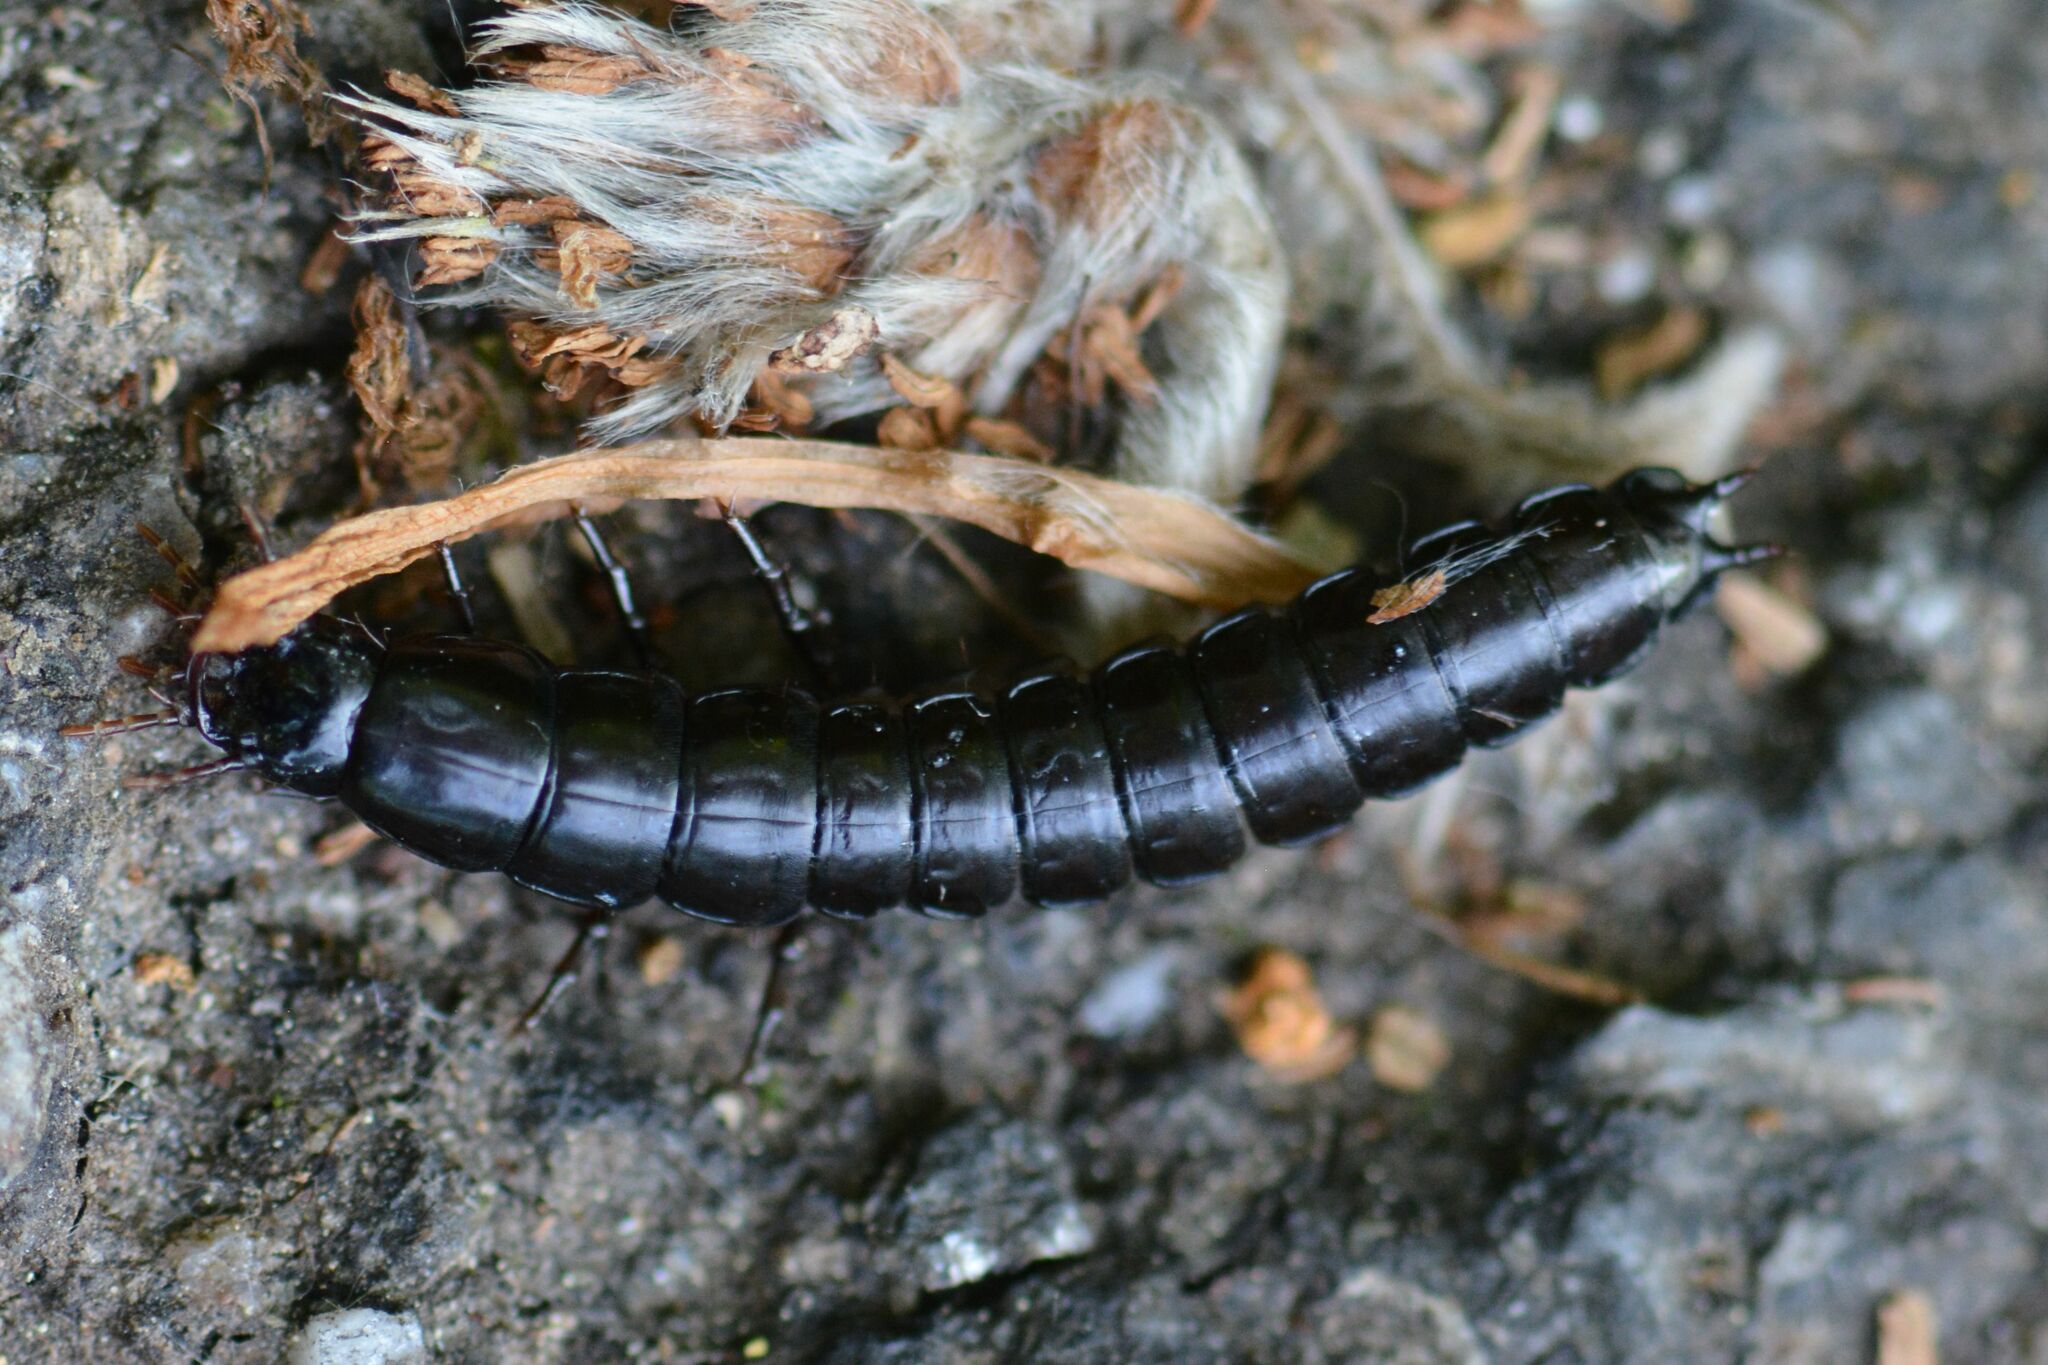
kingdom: Animalia
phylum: Arthropoda
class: Insecta
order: Coleoptera
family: Carabidae
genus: Carabus
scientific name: Carabus
